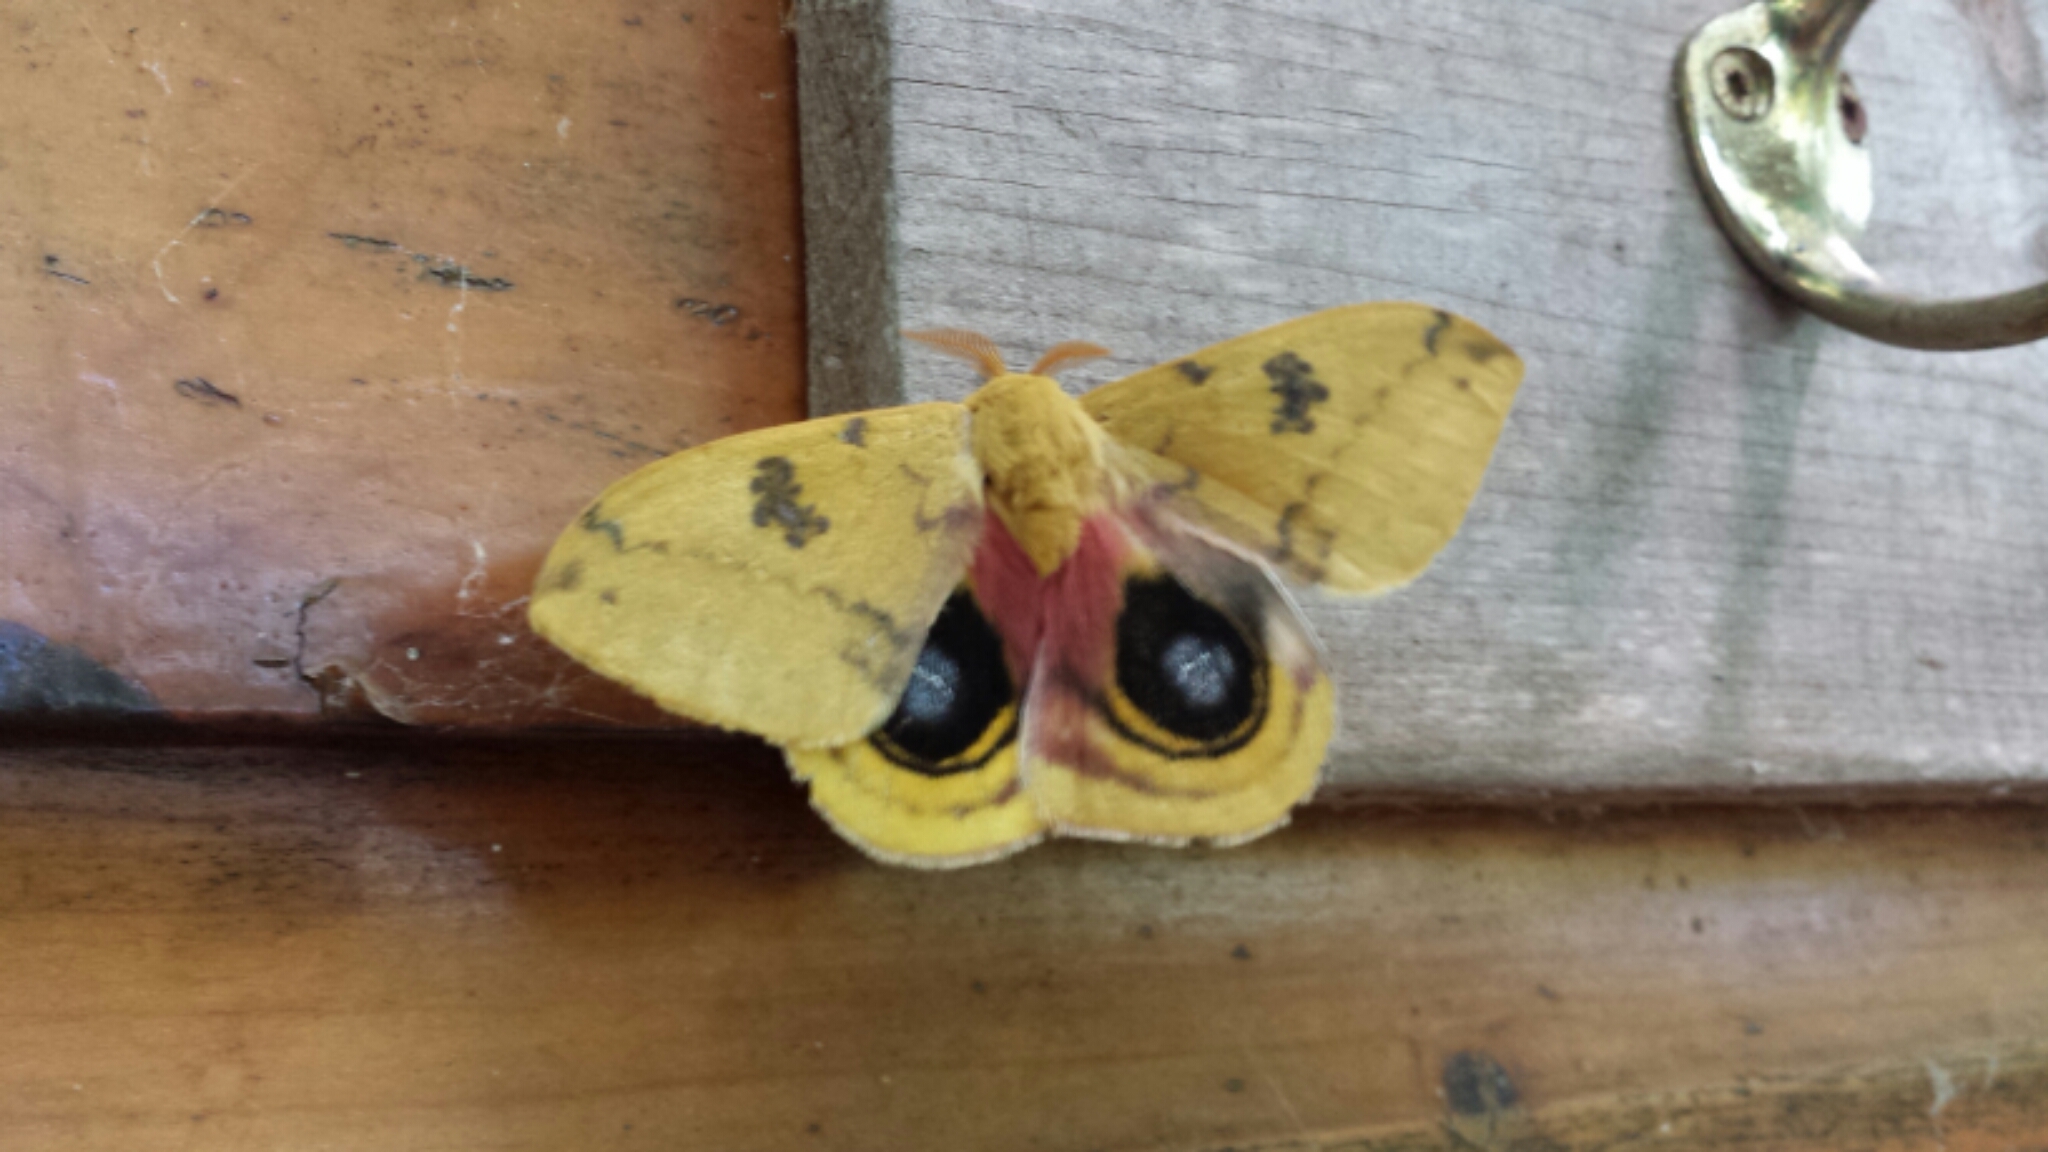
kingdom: Animalia
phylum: Arthropoda
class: Insecta
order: Lepidoptera
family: Saturniidae
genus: Automeris
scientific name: Automeris io
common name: Io moth
